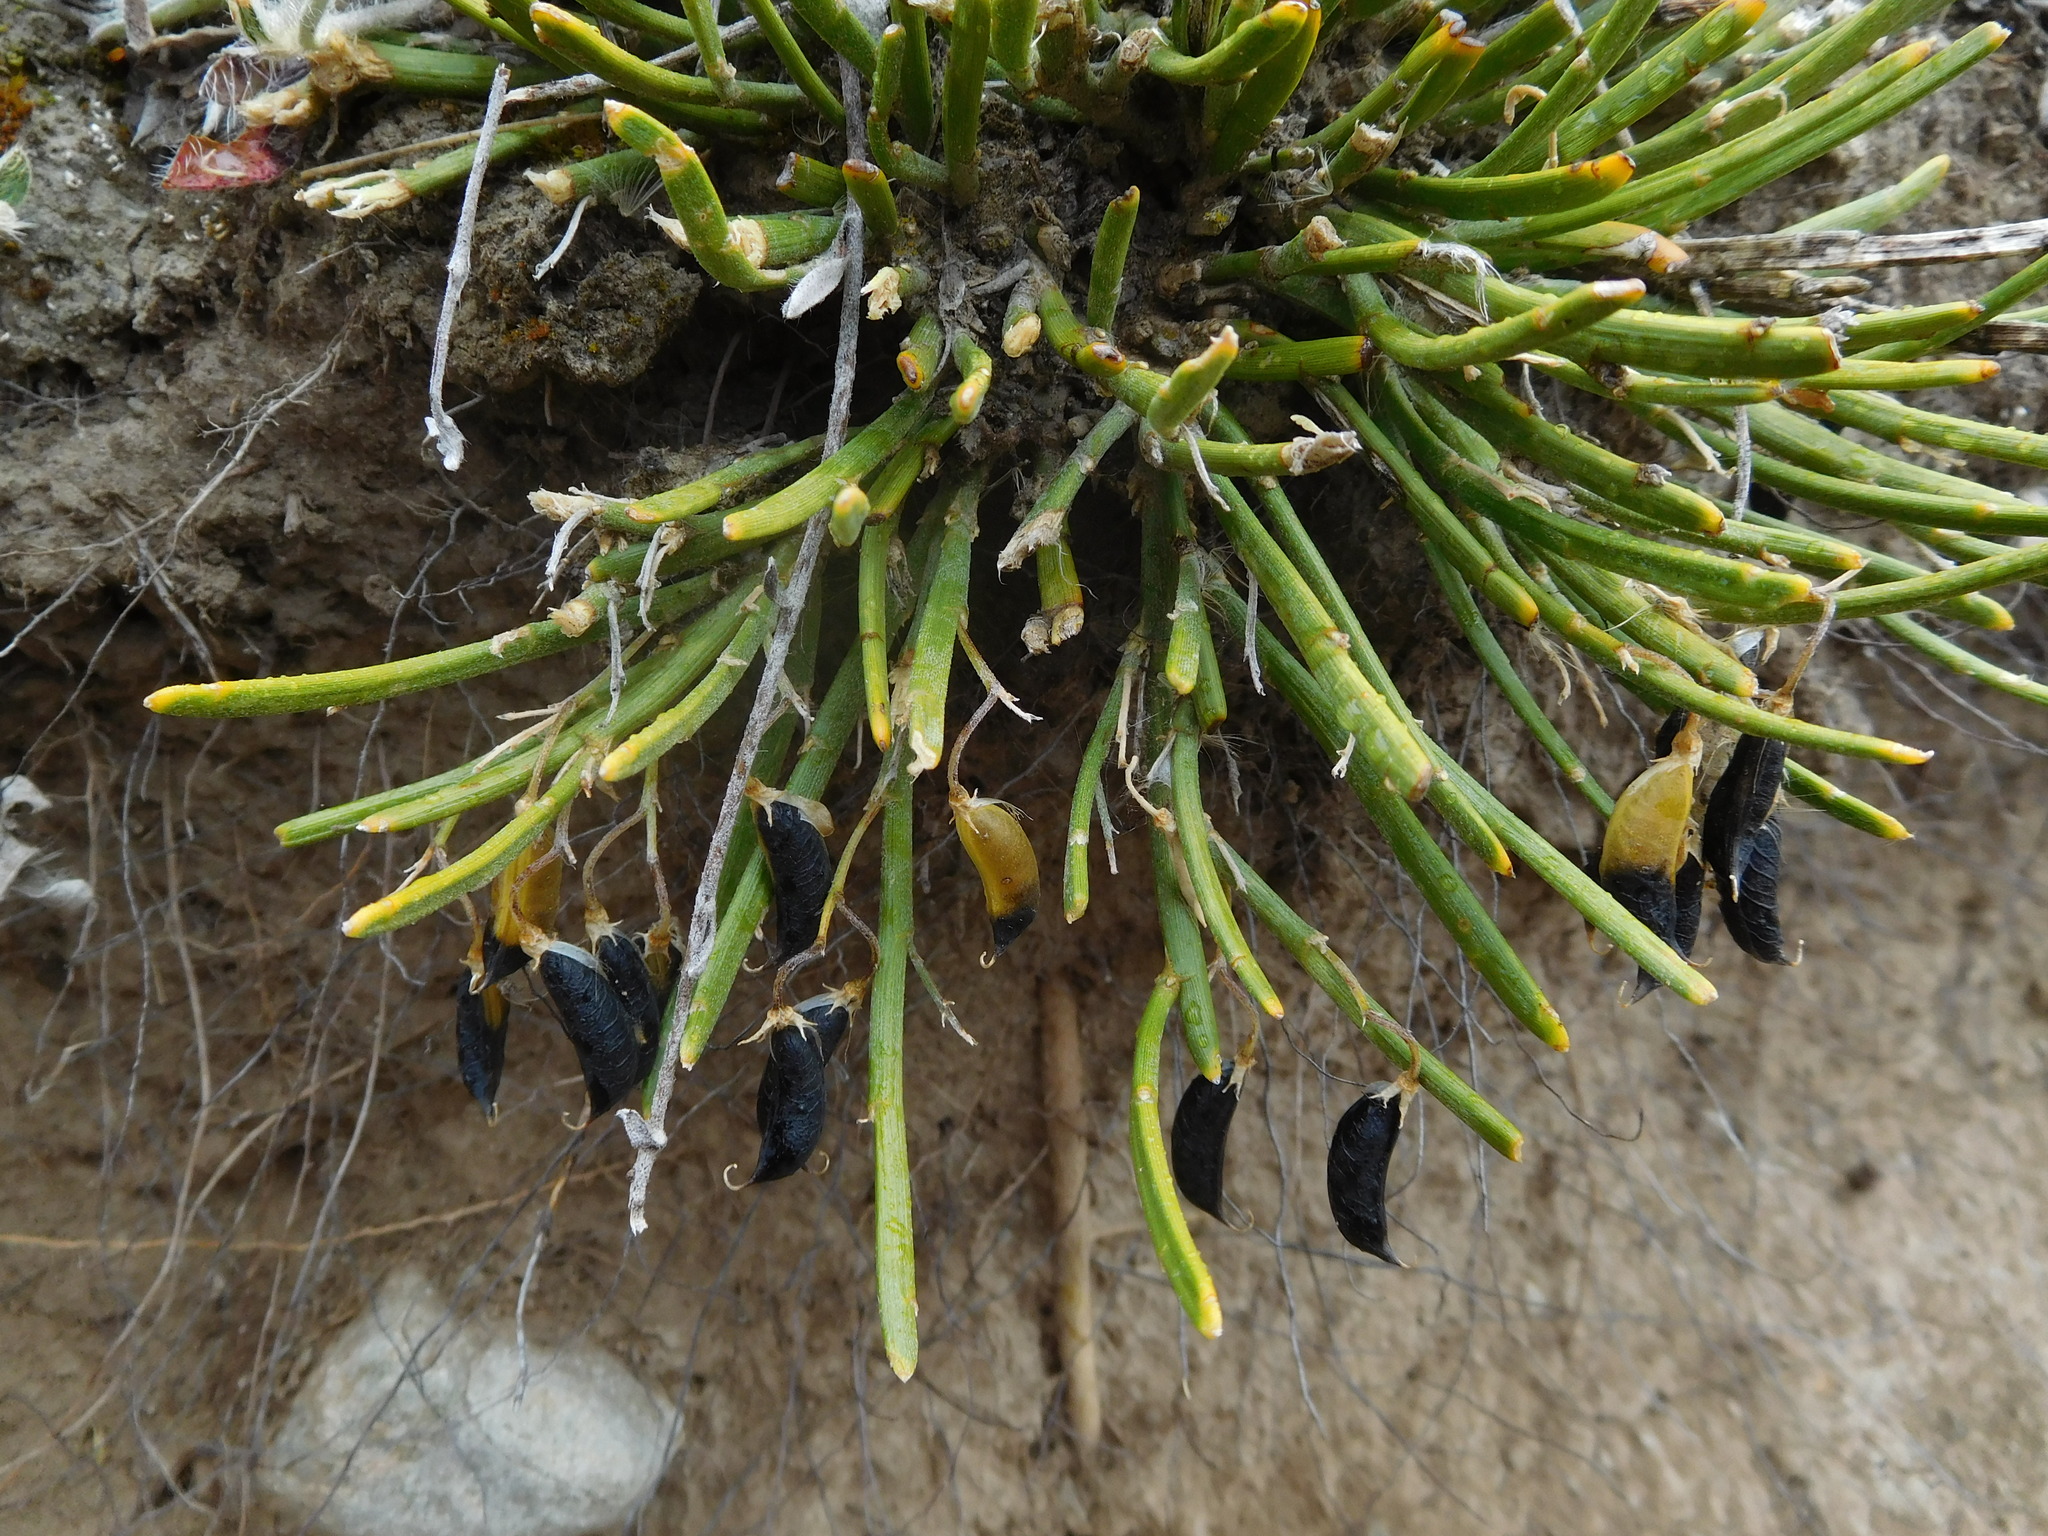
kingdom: Plantae
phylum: Tracheophyta
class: Magnoliopsida
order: Fabales
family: Fabaceae
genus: Carmichaelia
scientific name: Carmichaelia vexillata
